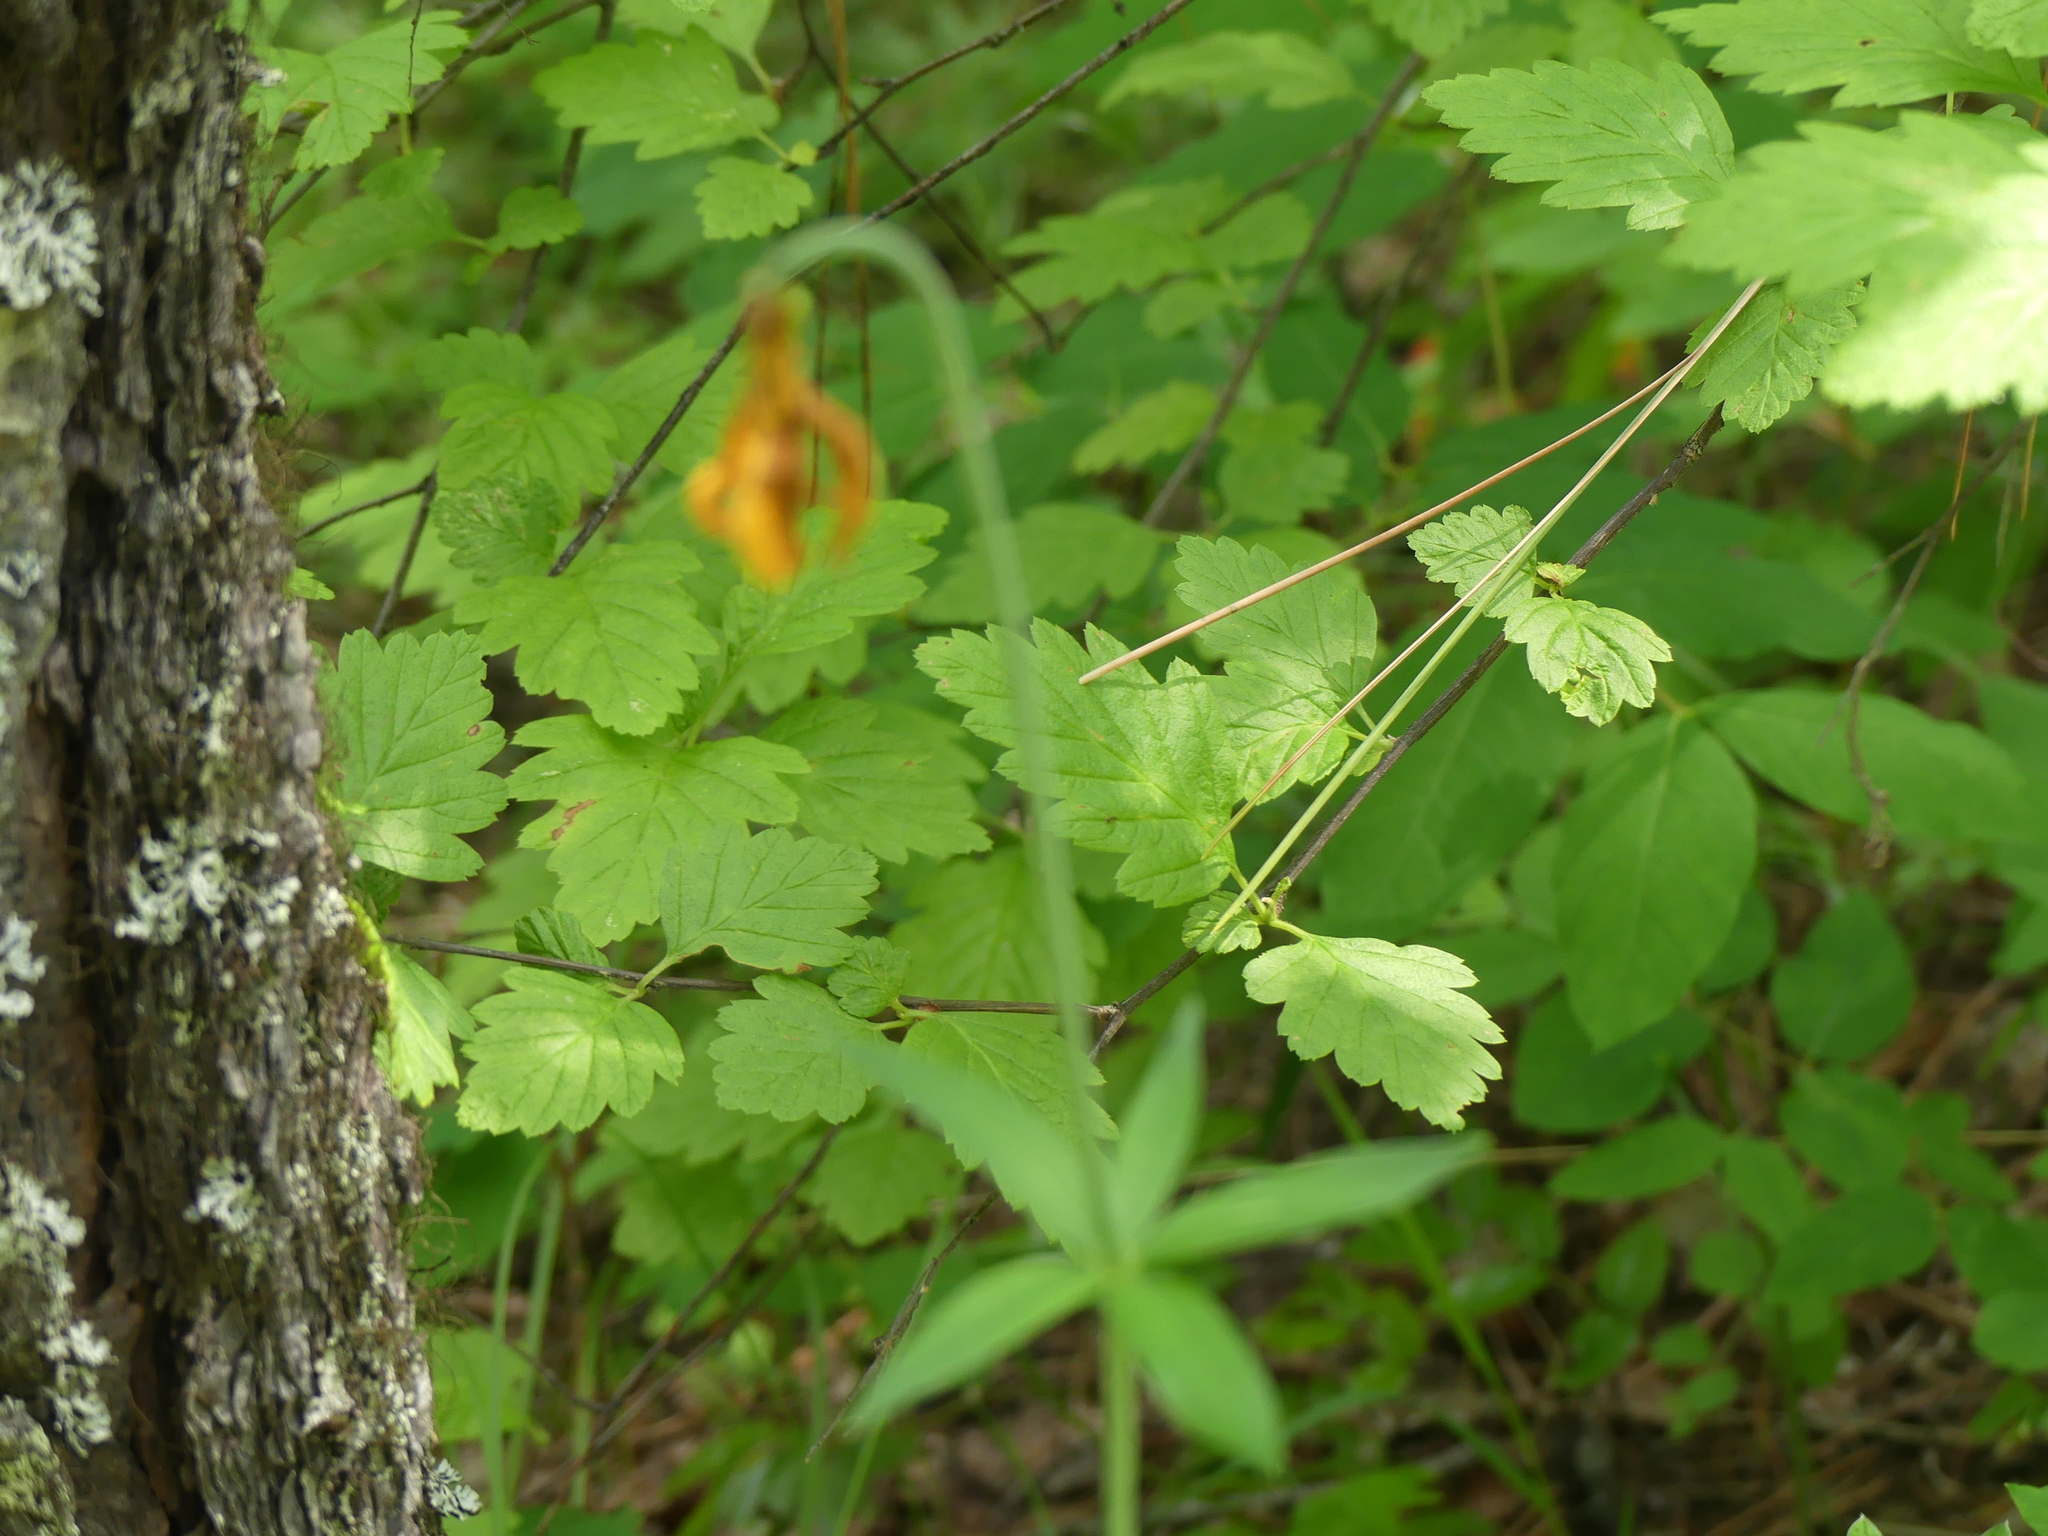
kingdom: Plantae
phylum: Tracheophyta
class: Liliopsida
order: Liliales
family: Liliaceae
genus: Lilium
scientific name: Lilium columbianum
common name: Columbia lily
